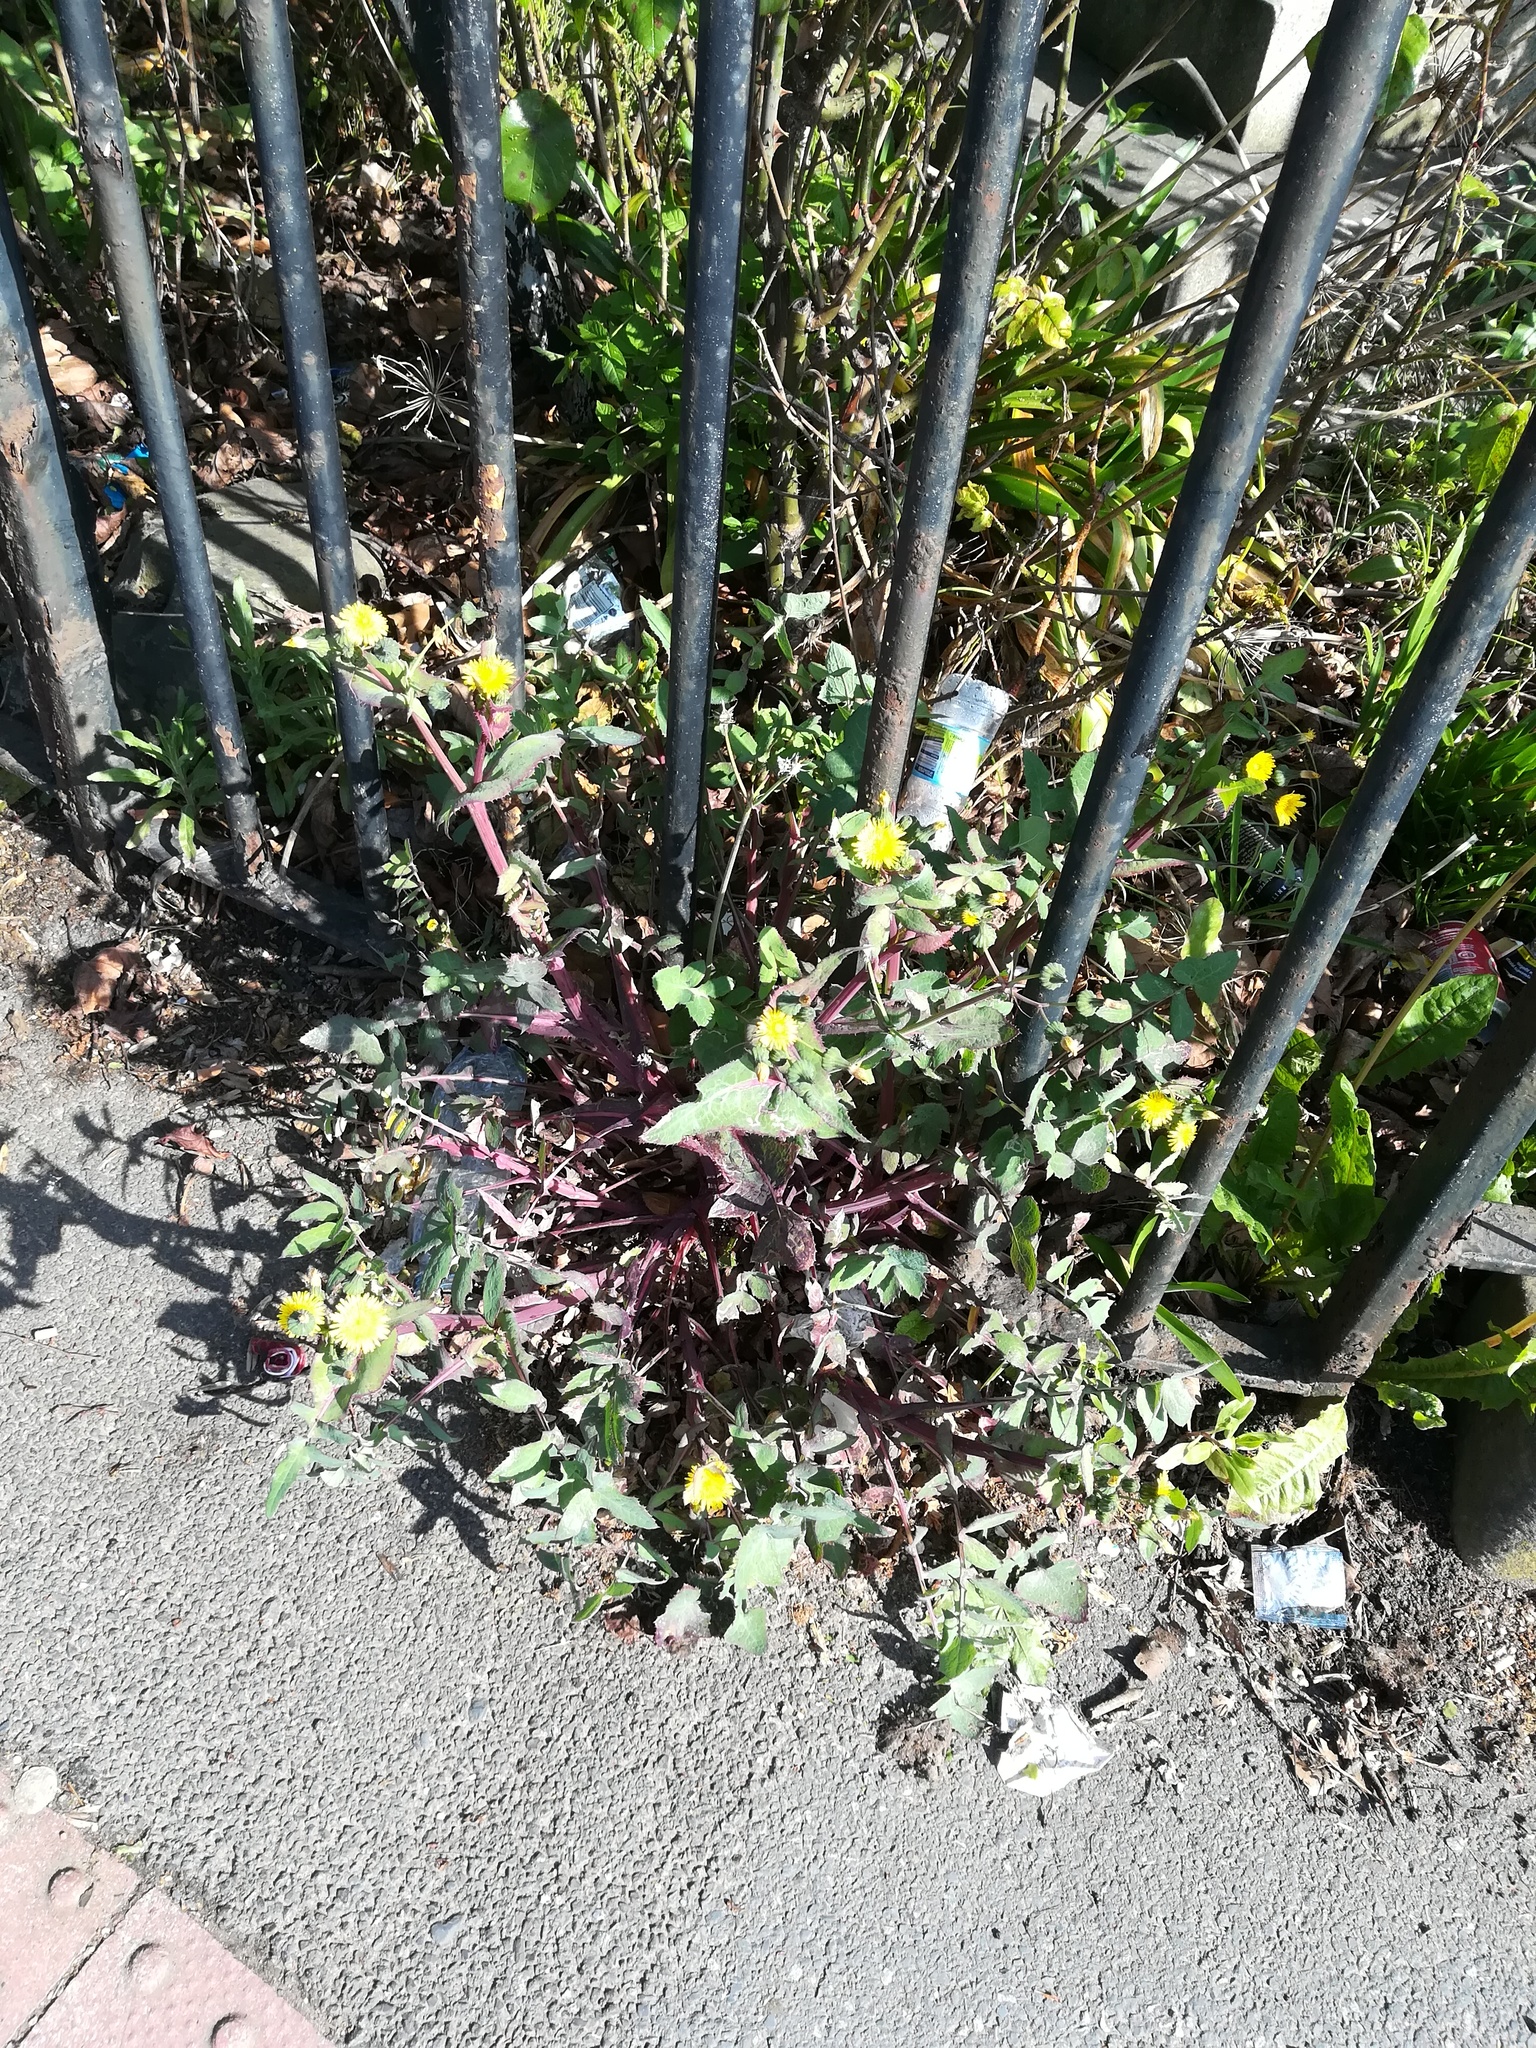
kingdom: Plantae
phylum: Tracheophyta
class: Magnoliopsida
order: Asterales
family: Asteraceae
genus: Sonchus
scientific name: Sonchus oleraceus
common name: Common sowthistle
